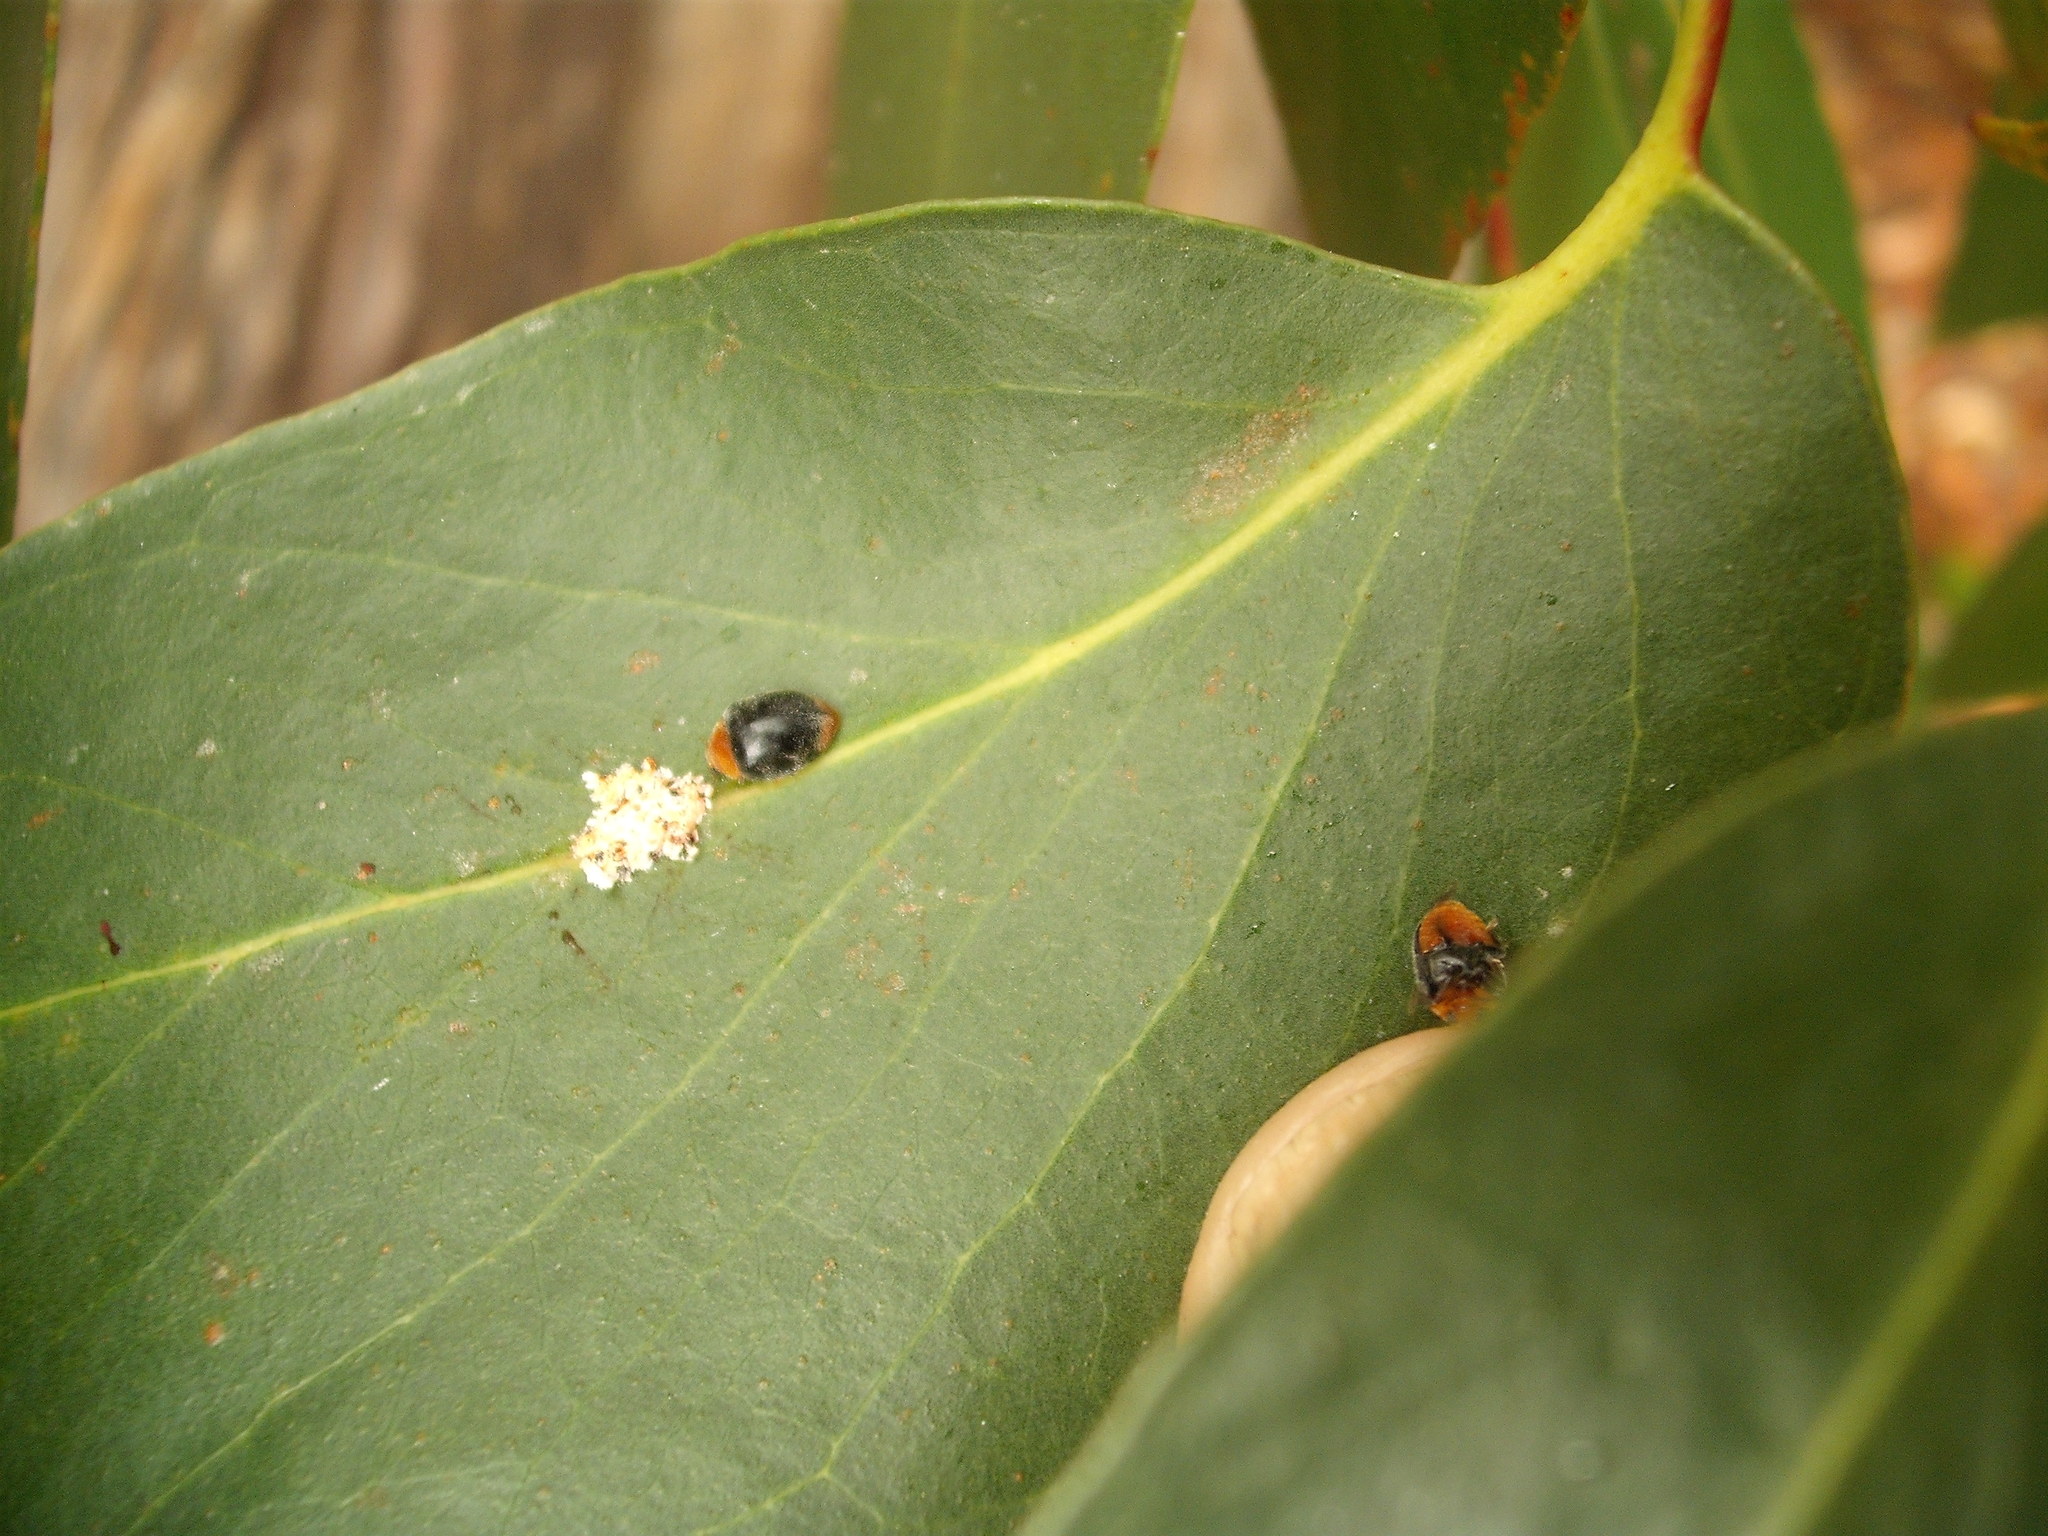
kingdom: Animalia
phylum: Arthropoda
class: Insecta
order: Coleoptera
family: Coccinellidae
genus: Cryptolaemus
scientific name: Cryptolaemus montrouzieri
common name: Mealybug destroyer
